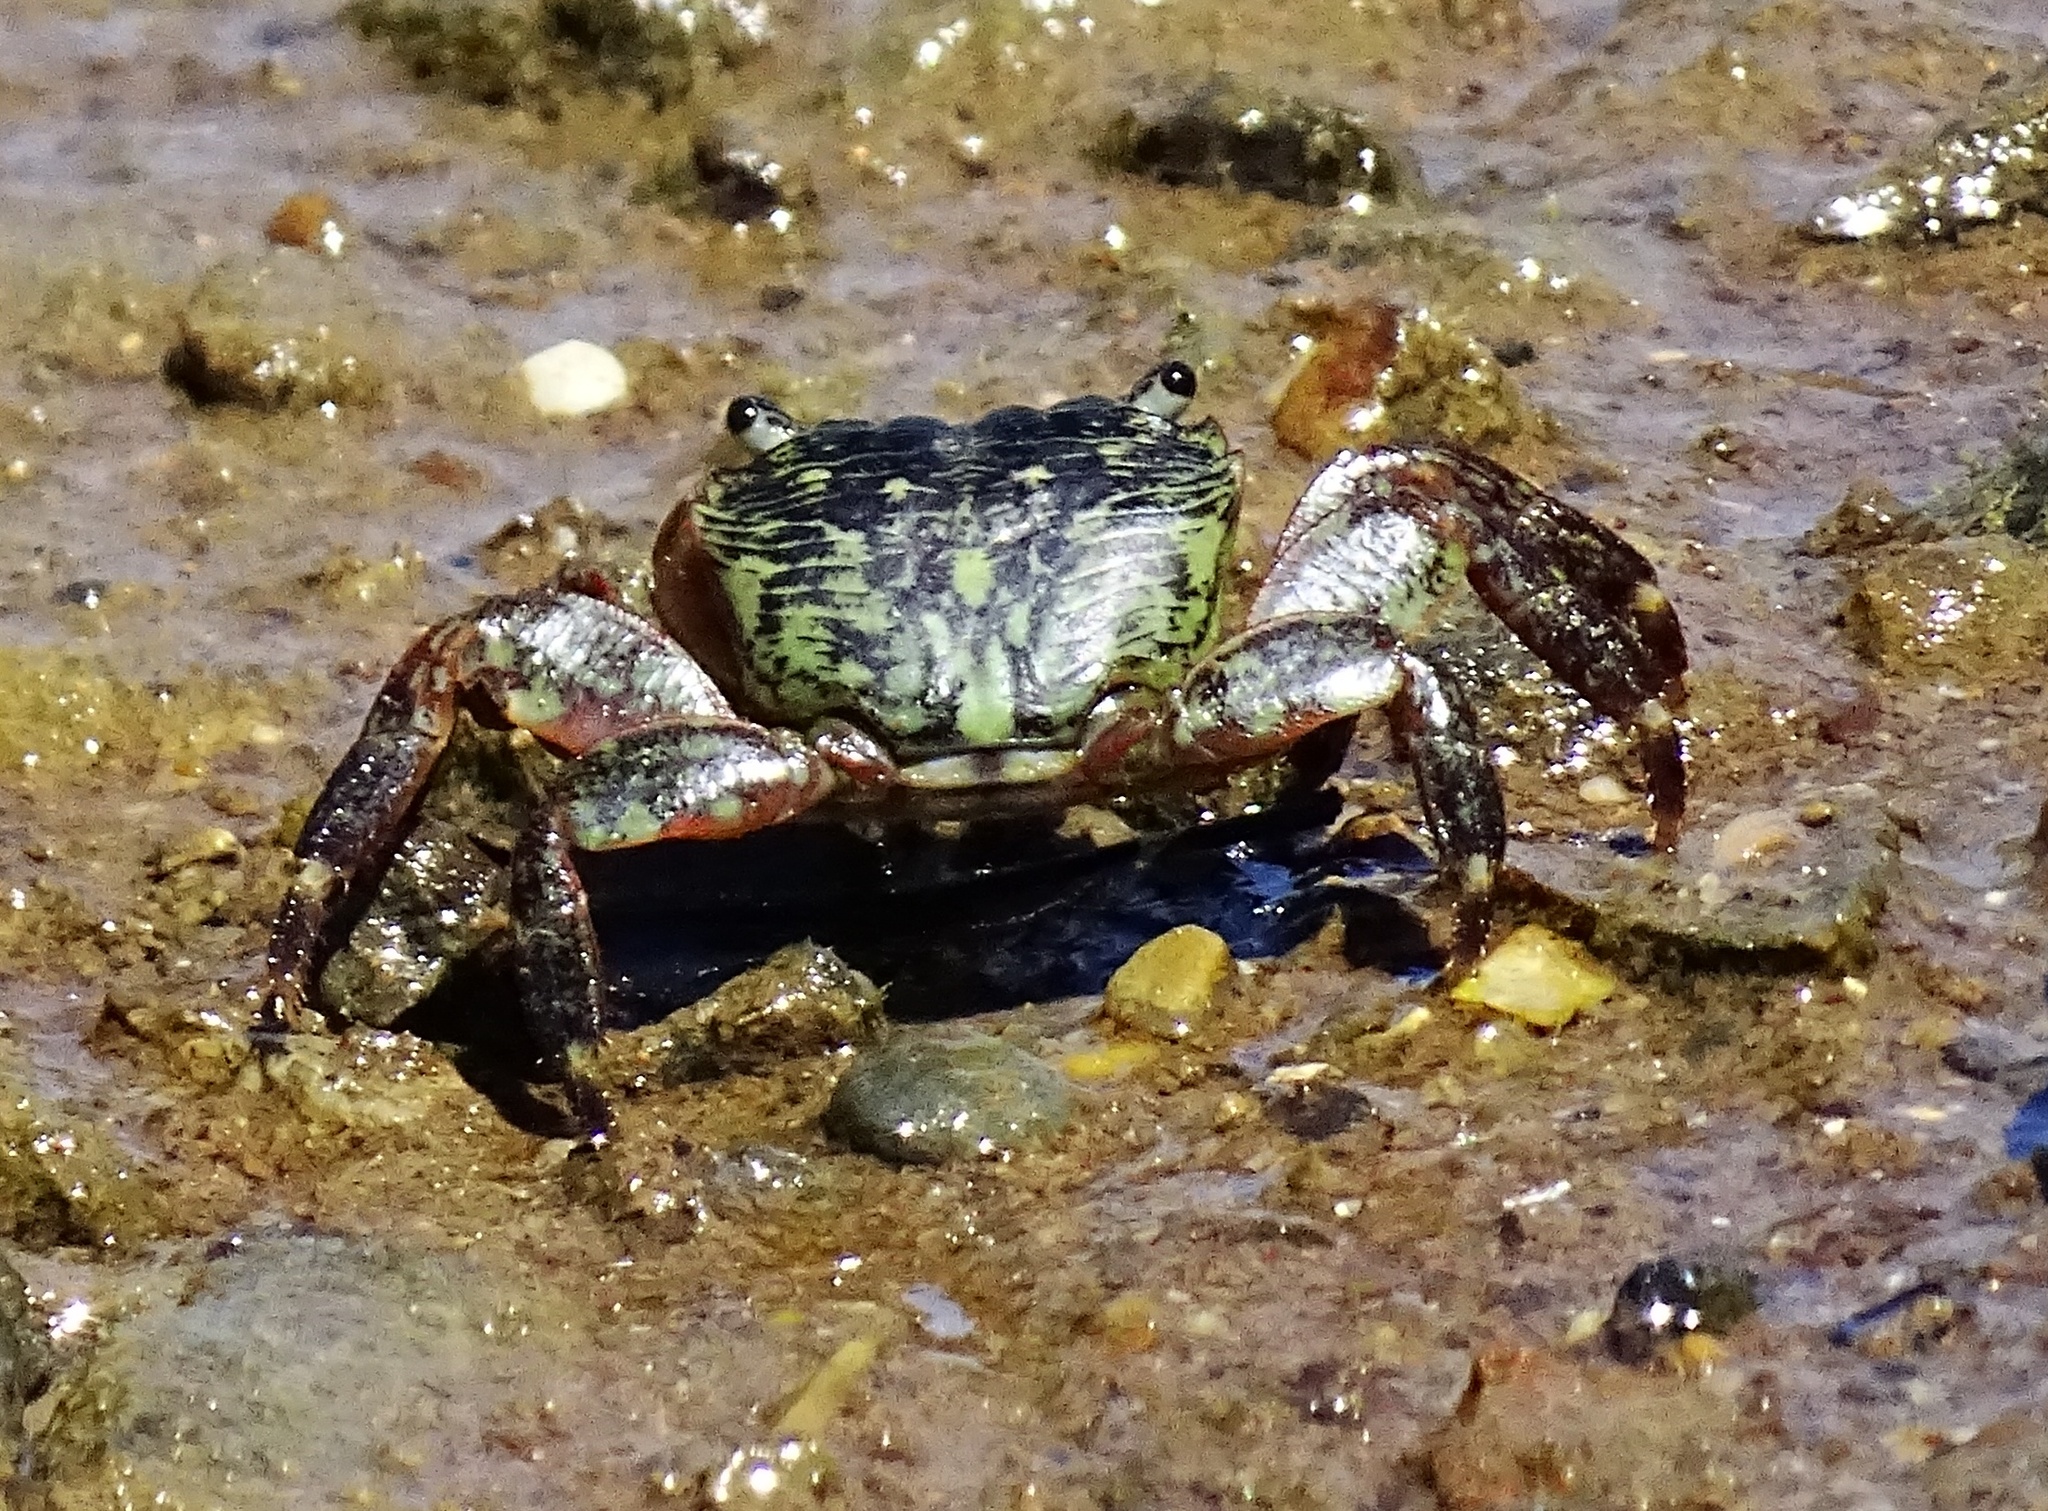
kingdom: Animalia
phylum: Arthropoda
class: Malacostraca
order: Decapoda
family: Grapsidae
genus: Pachygrapsus
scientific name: Pachygrapsus crassipes
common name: Striped shore crab
